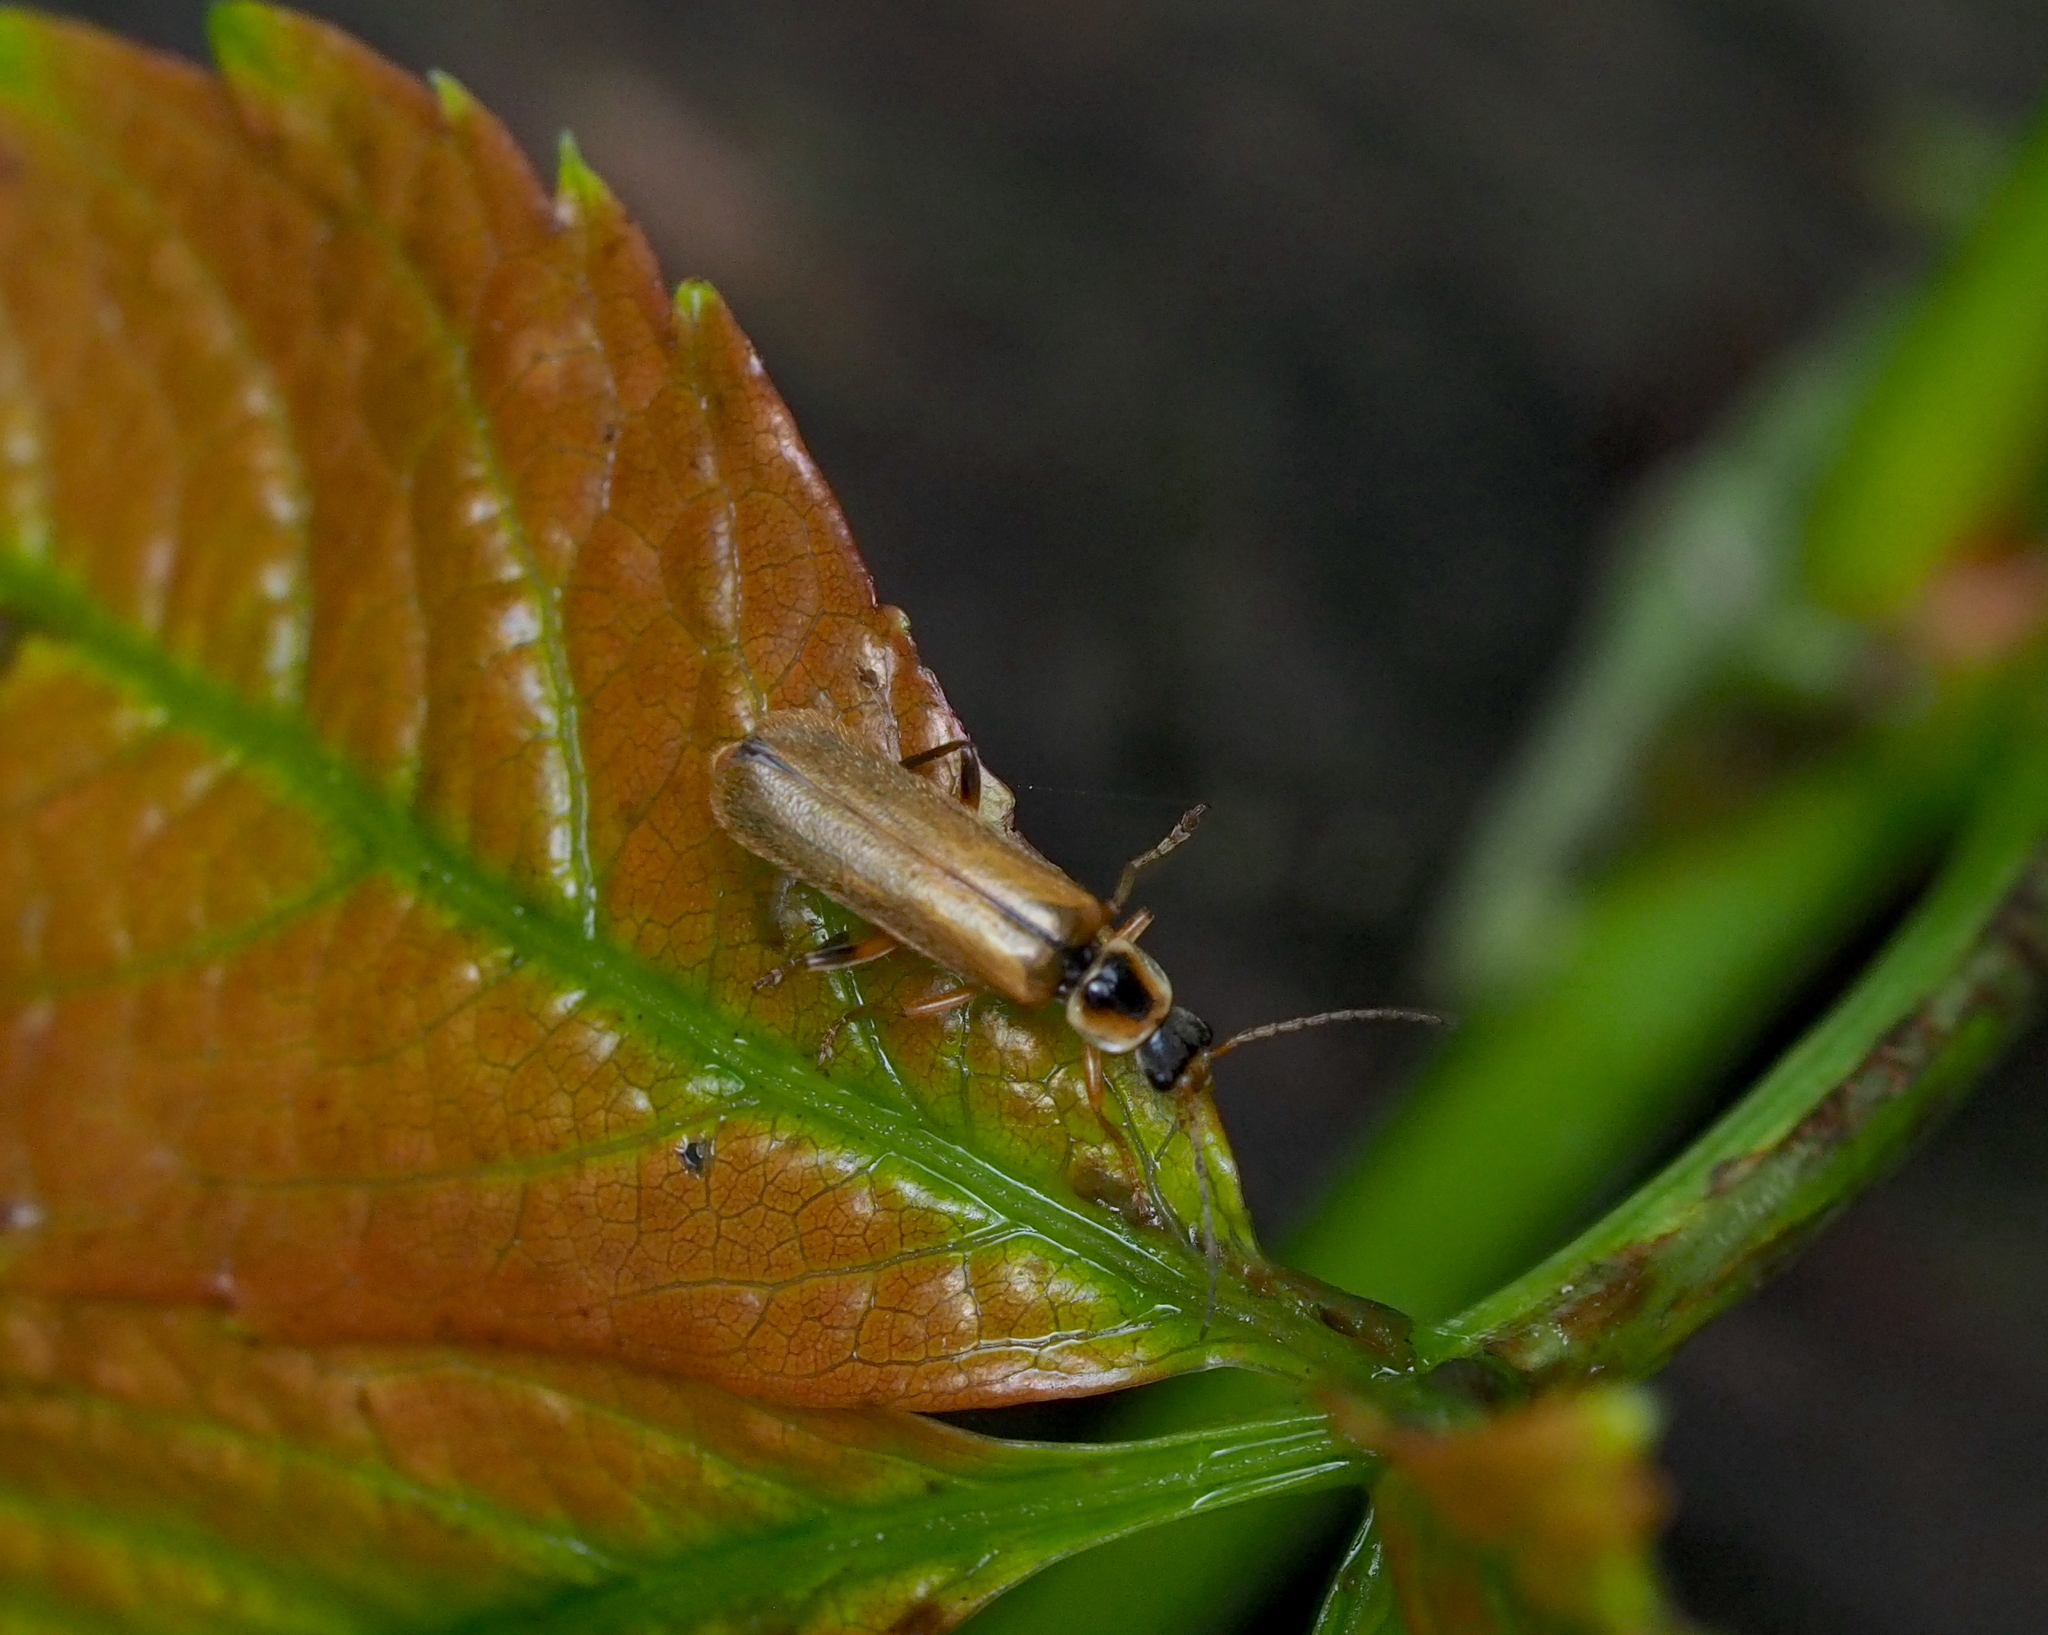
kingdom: Animalia
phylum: Arthropoda
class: Insecta
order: Coleoptera
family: Cantharidae
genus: Cantharis
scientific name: Cantharis decipiens
